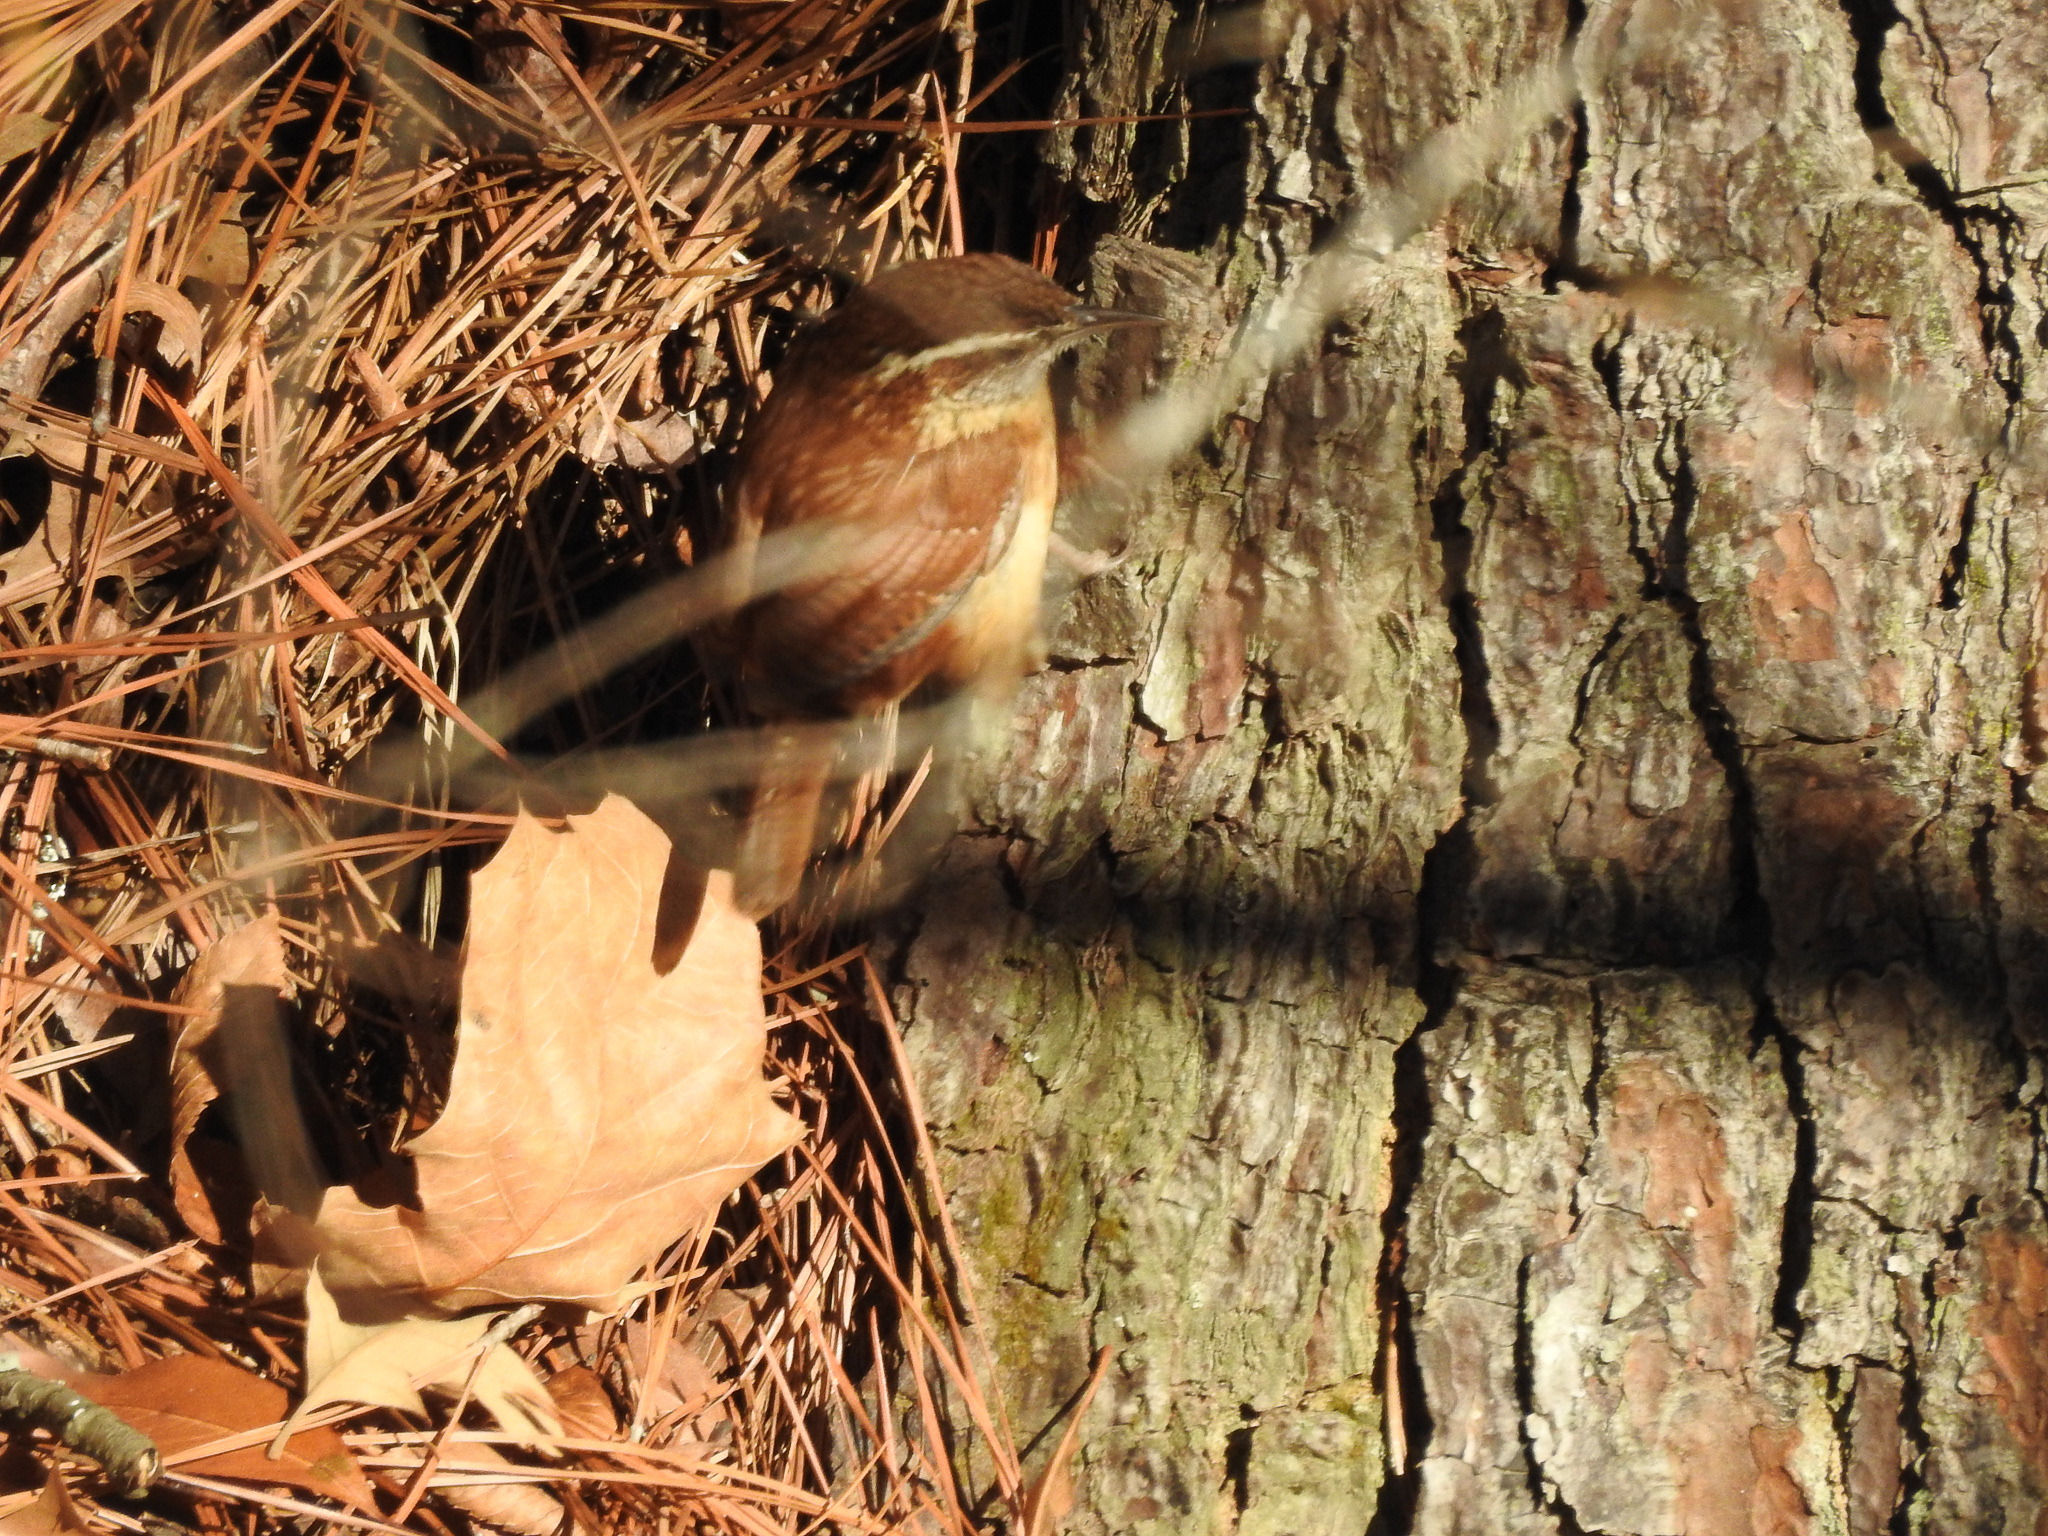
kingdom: Animalia
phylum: Chordata
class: Aves
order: Passeriformes
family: Troglodytidae
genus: Thryothorus
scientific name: Thryothorus ludovicianus
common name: Carolina wren
